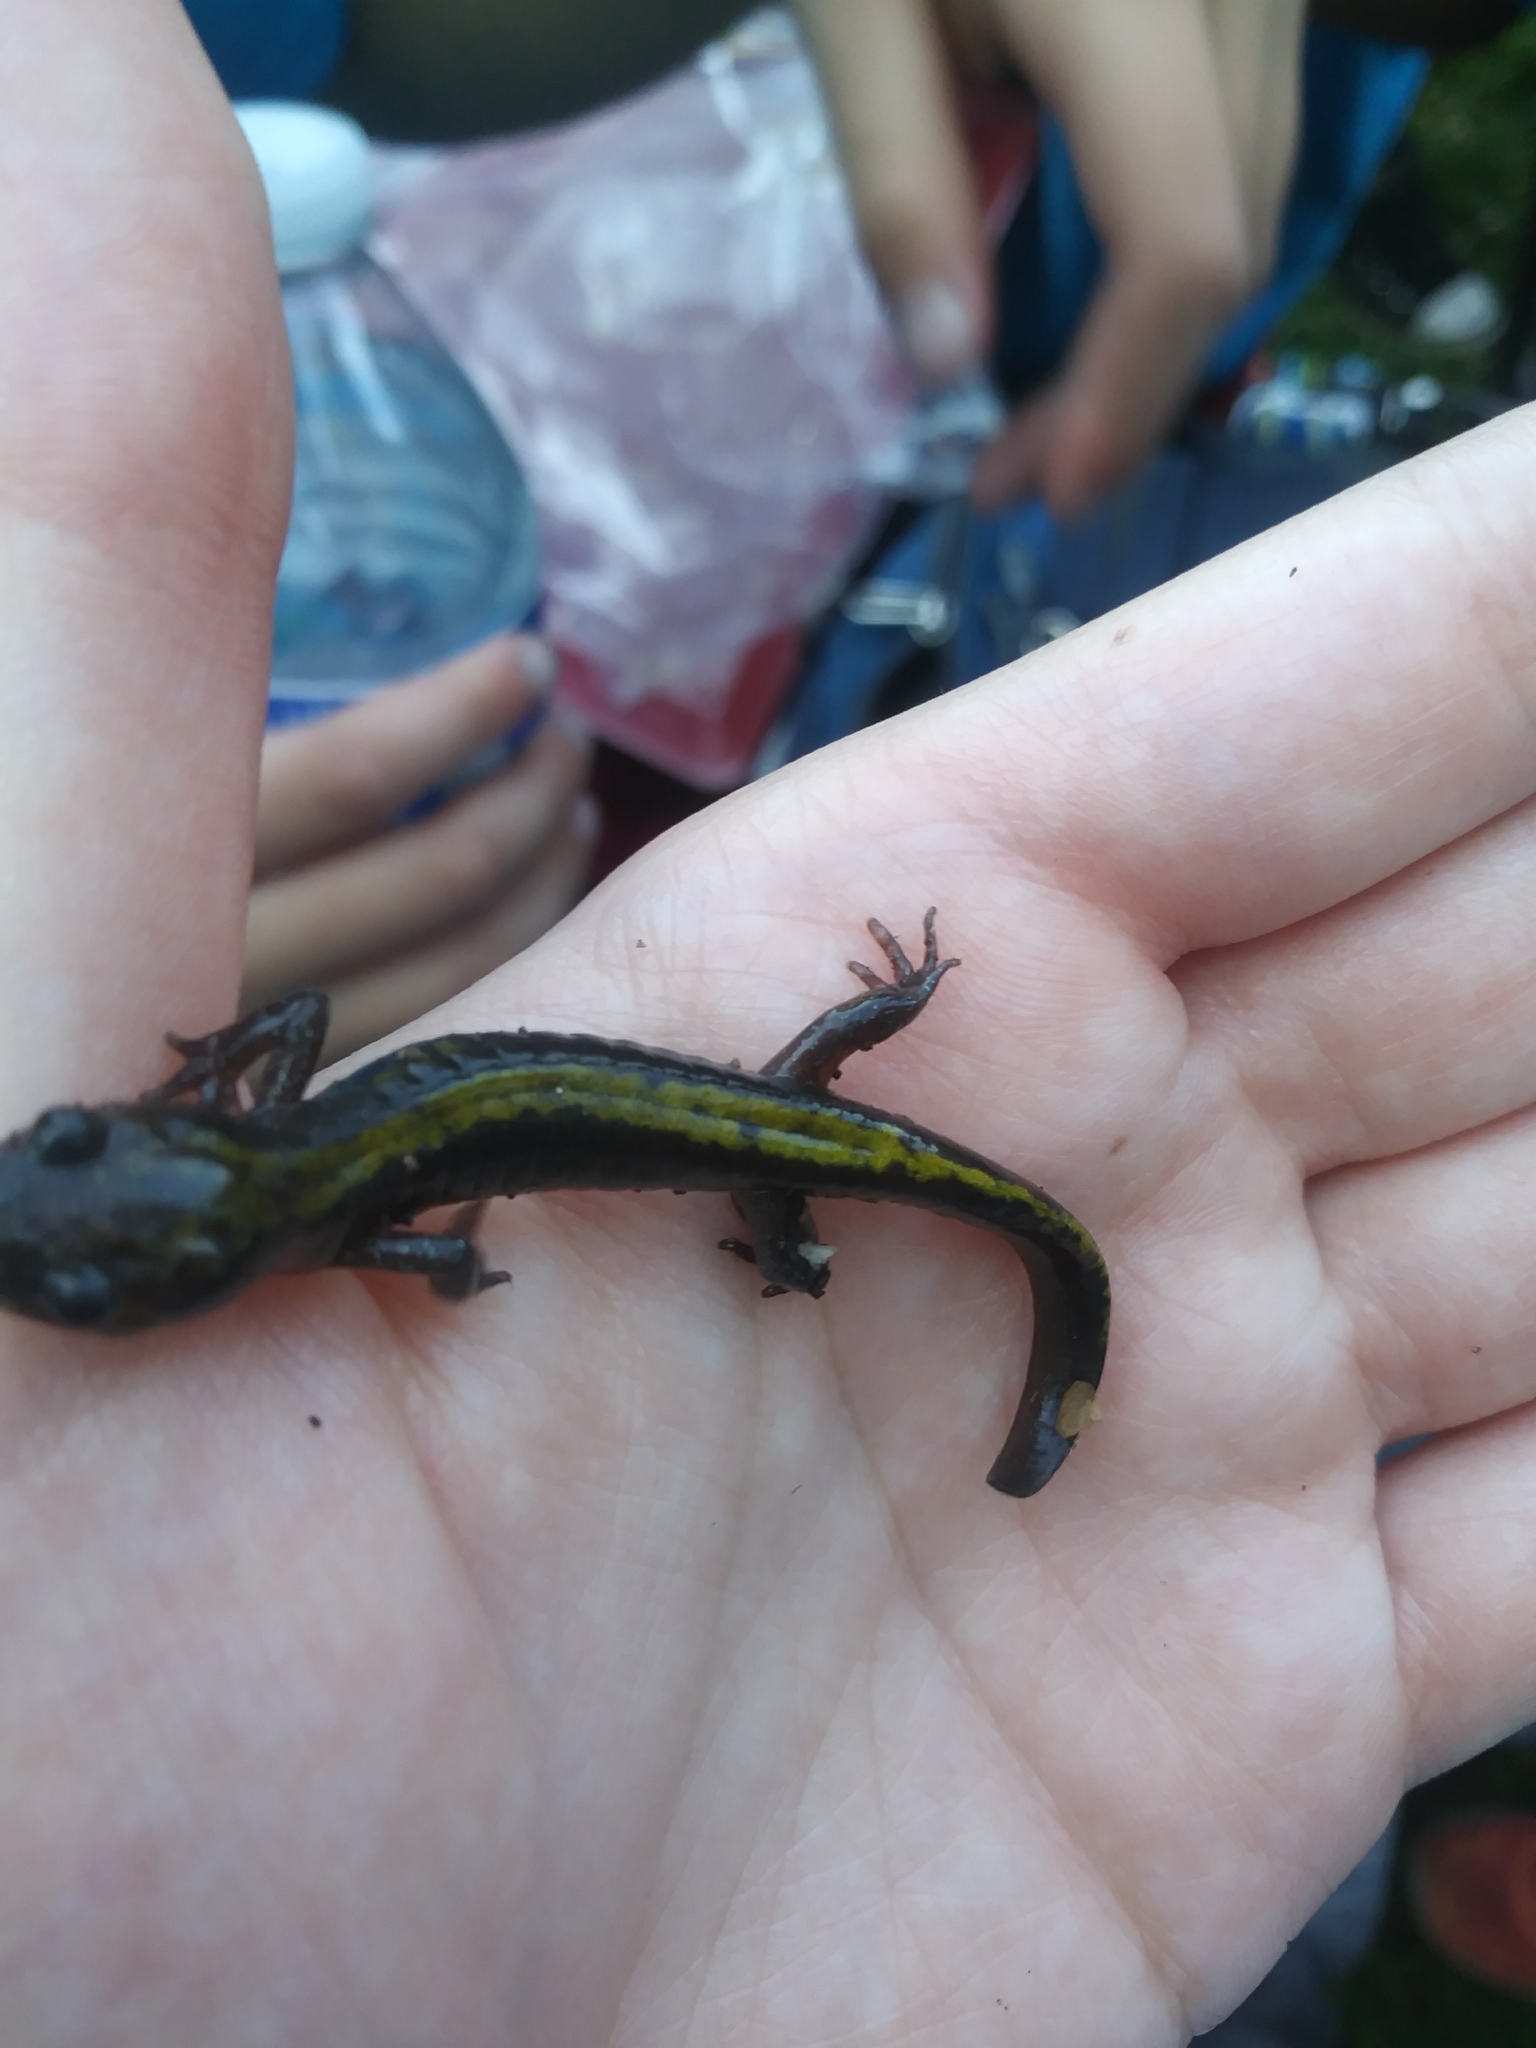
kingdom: Animalia
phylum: Chordata
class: Amphibia
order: Caudata
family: Ambystomatidae
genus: Ambystoma
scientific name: Ambystoma macrodactylum
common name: Long-toed salamander
